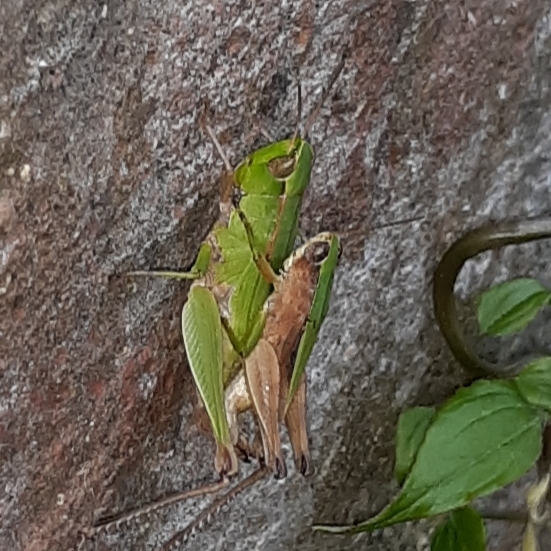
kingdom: Animalia
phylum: Arthropoda
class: Insecta
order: Orthoptera
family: Acrididae
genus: Dichromorpha
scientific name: Dichromorpha viridis
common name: Short-winged green grasshopper
